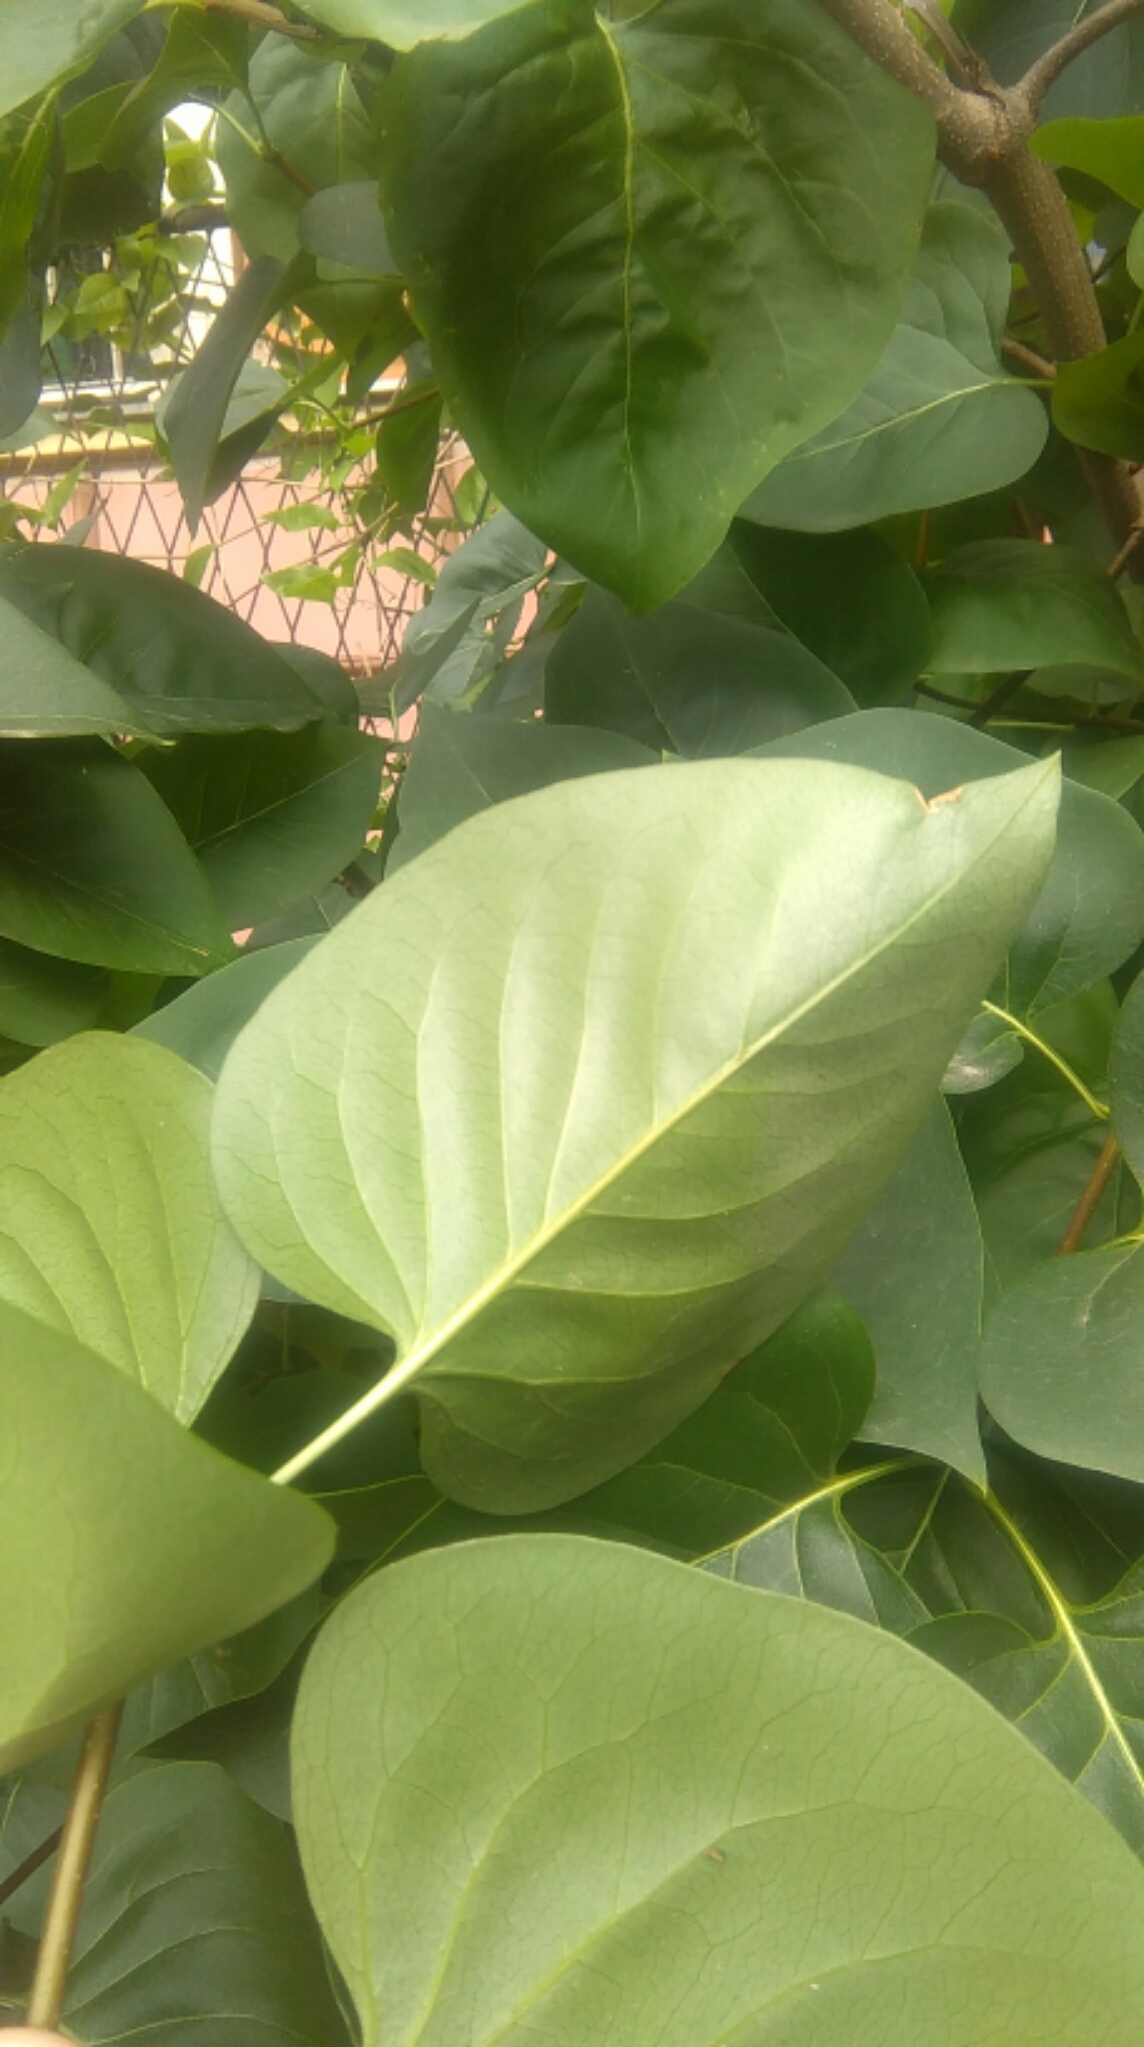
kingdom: Plantae
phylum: Tracheophyta
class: Magnoliopsida
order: Lamiales
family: Oleaceae
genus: Syringa
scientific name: Syringa vulgaris
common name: Common lilac
